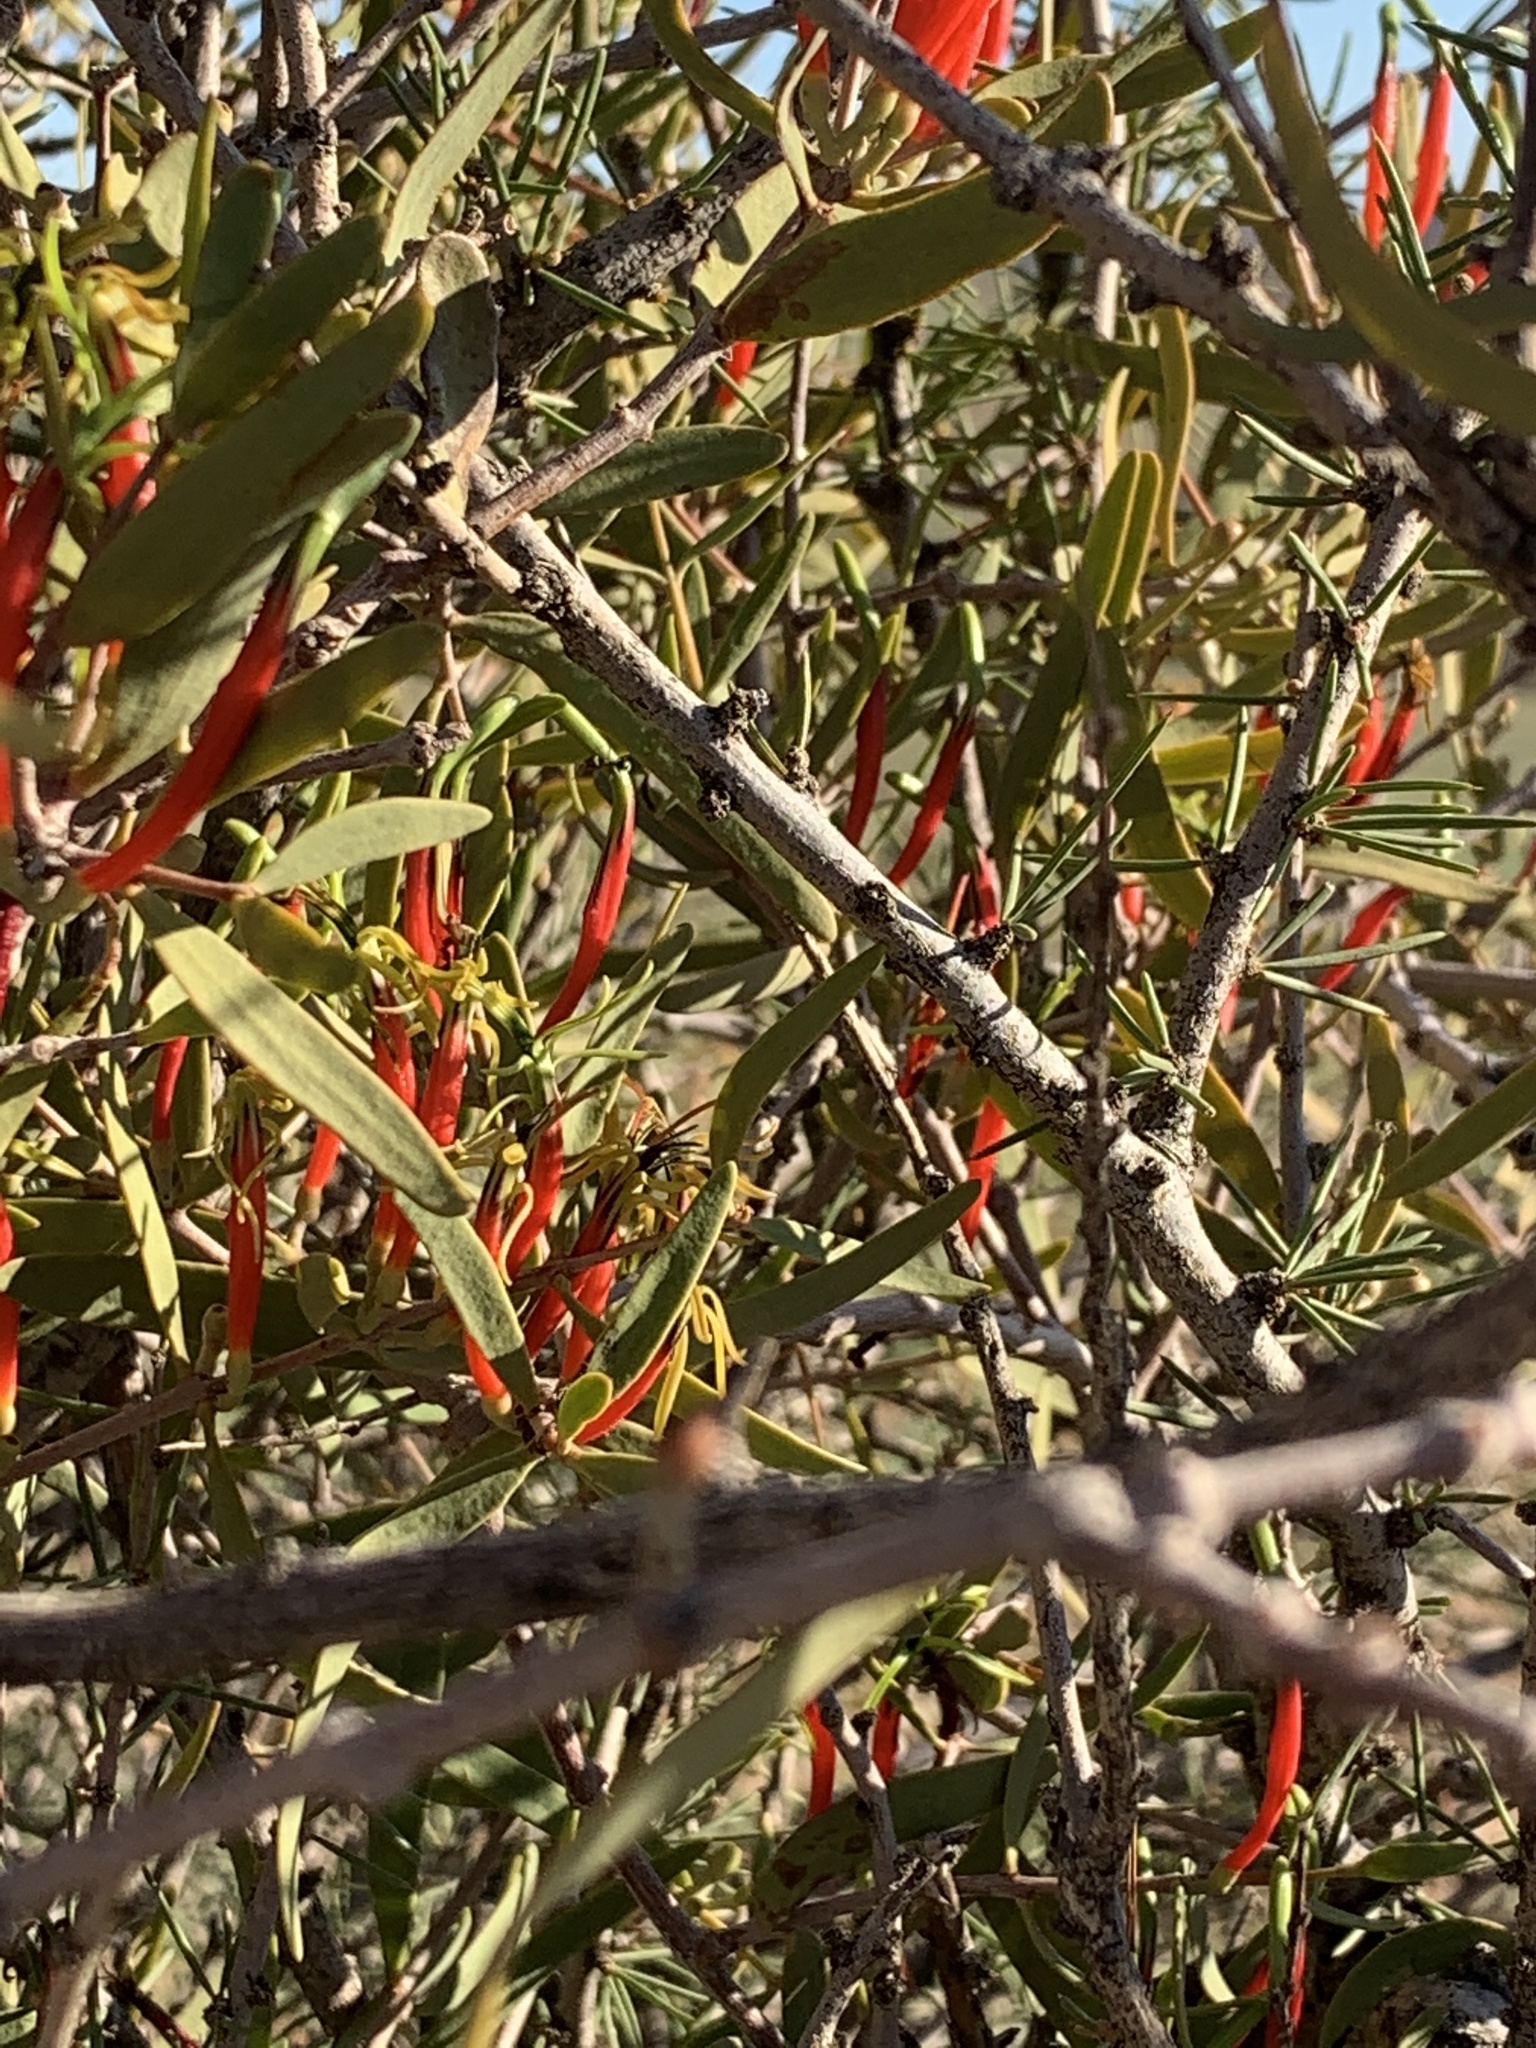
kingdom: Plantae
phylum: Tracheophyta
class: Magnoliopsida
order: Santalales
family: Loranthaceae
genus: Lysiana
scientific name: Lysiana exocarpi
